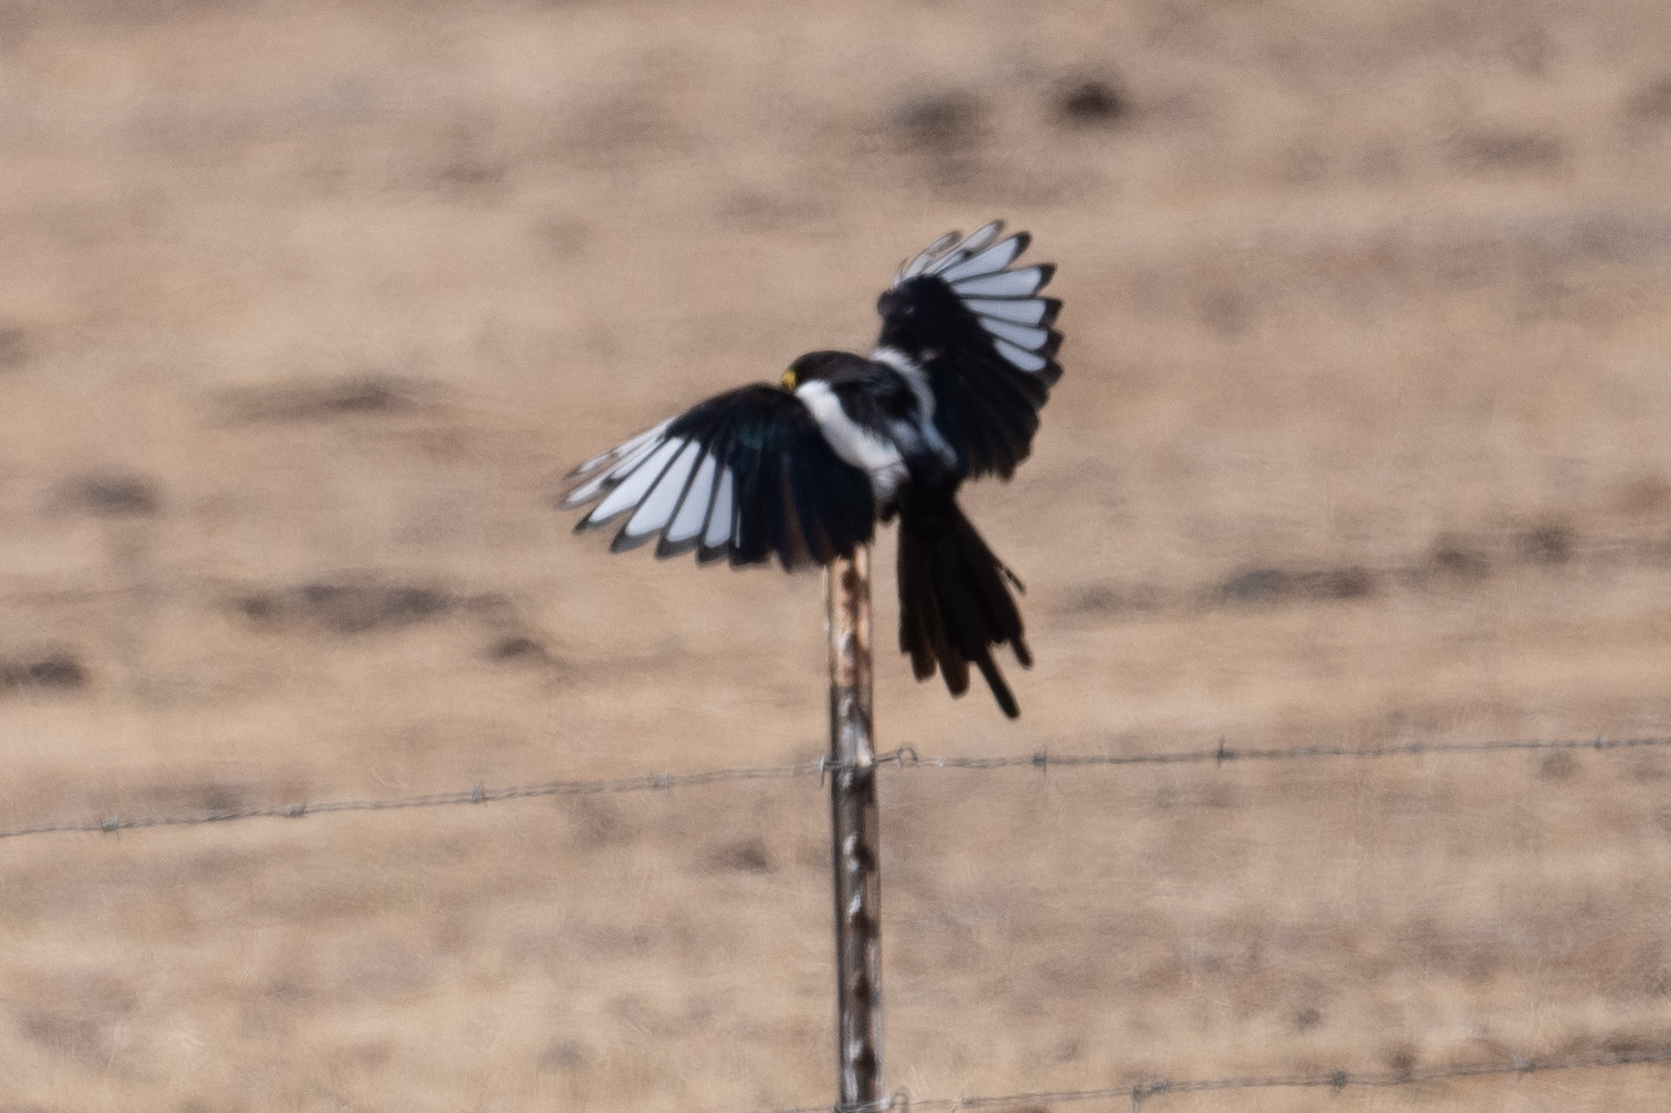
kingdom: Animalia
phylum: Chordata
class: Aves
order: Passeriformes
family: Corvidae
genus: Pica
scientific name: Pica nuttalli
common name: Yellow-billed magpie
